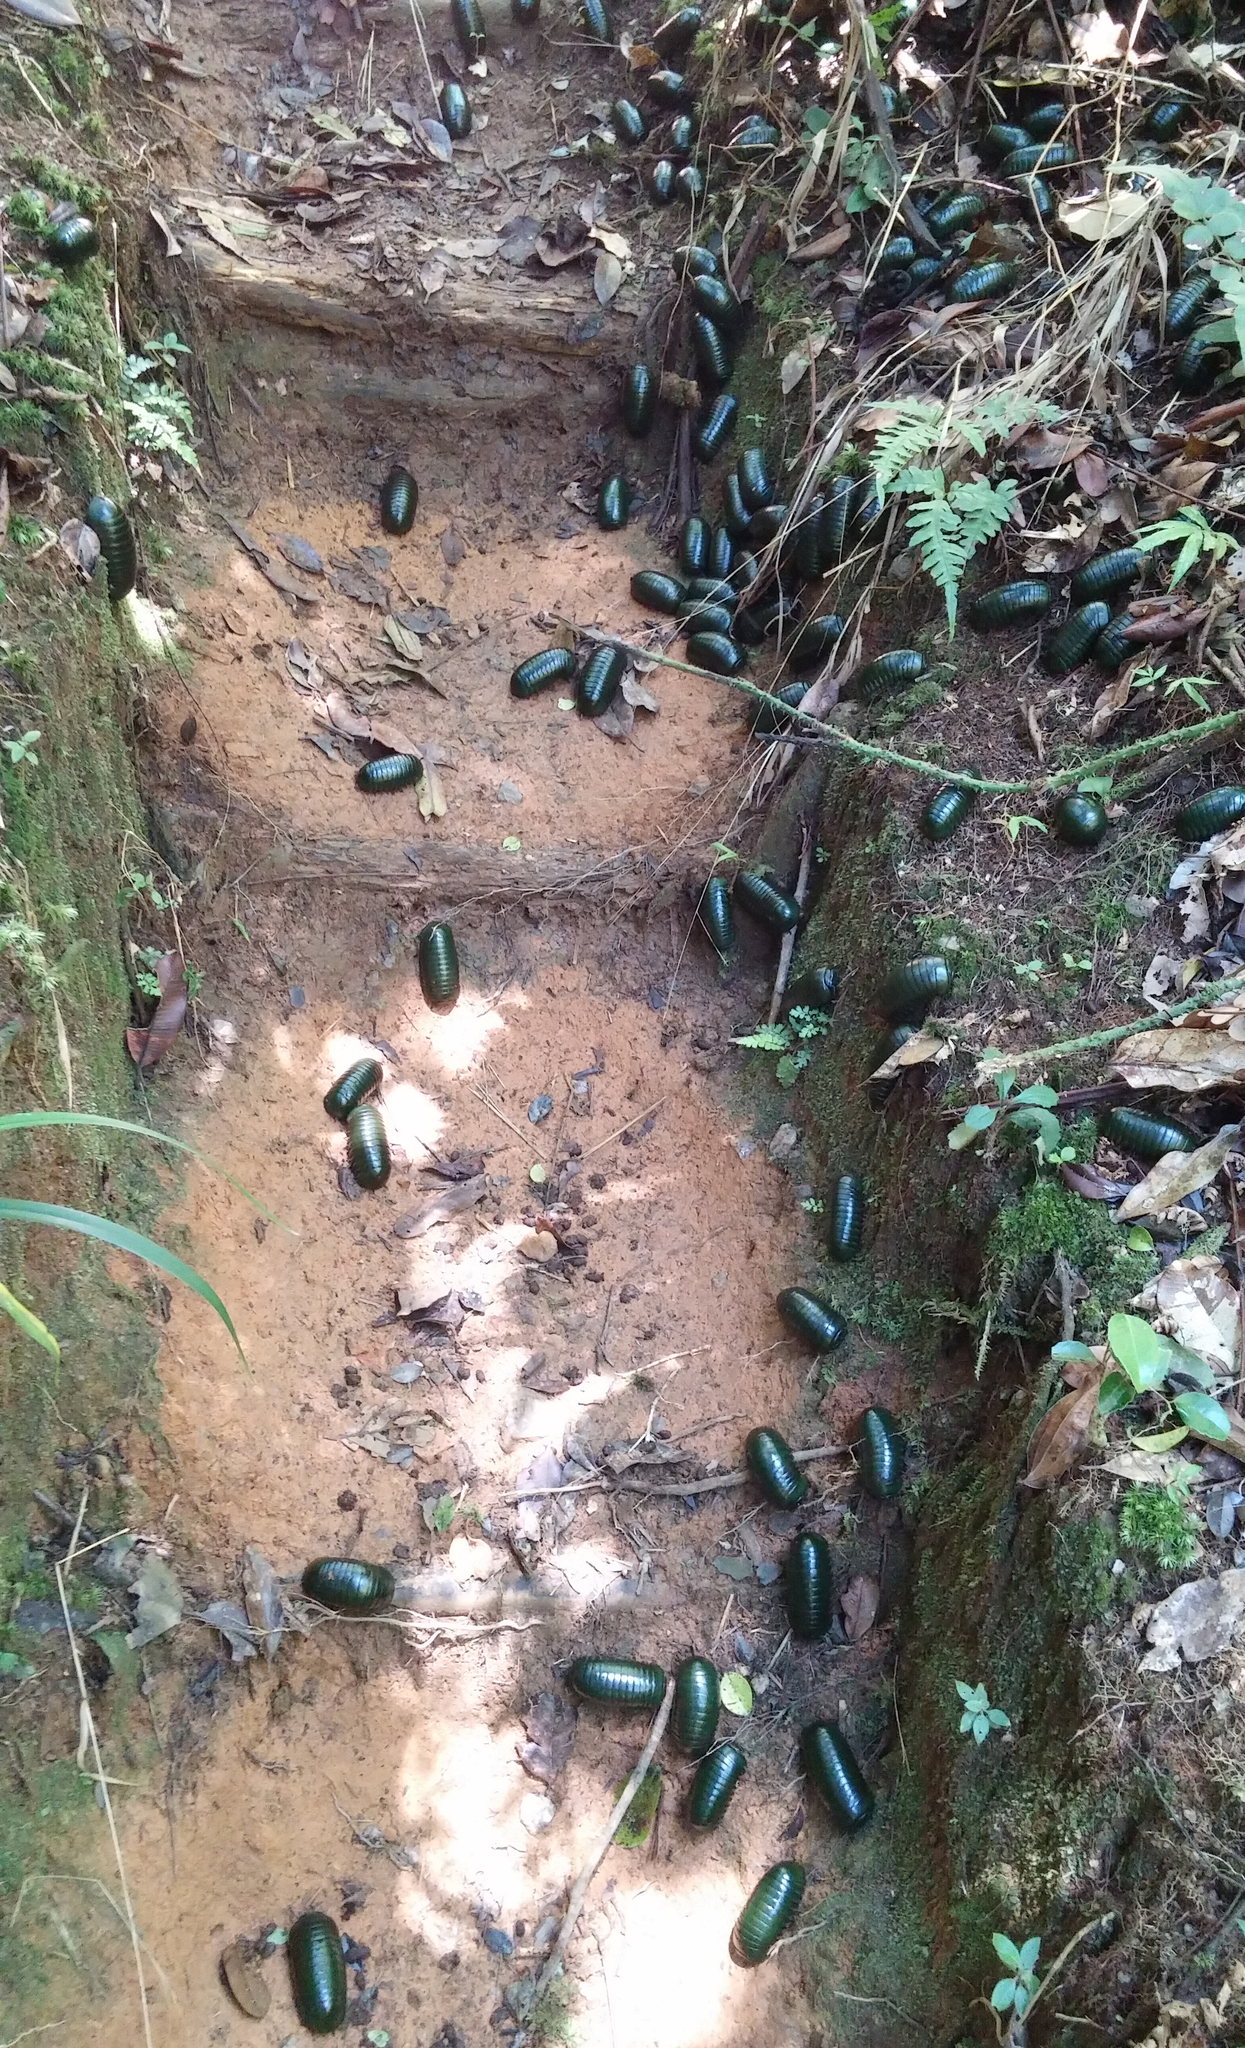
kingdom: Animalia
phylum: Arthropoda
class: Diplopoda
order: Sphaerotheriida
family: Arthrosphaeridae
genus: Zoosphaerium
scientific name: Zoosphaerium neptunus
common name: Emerald green giant pill-millipede
